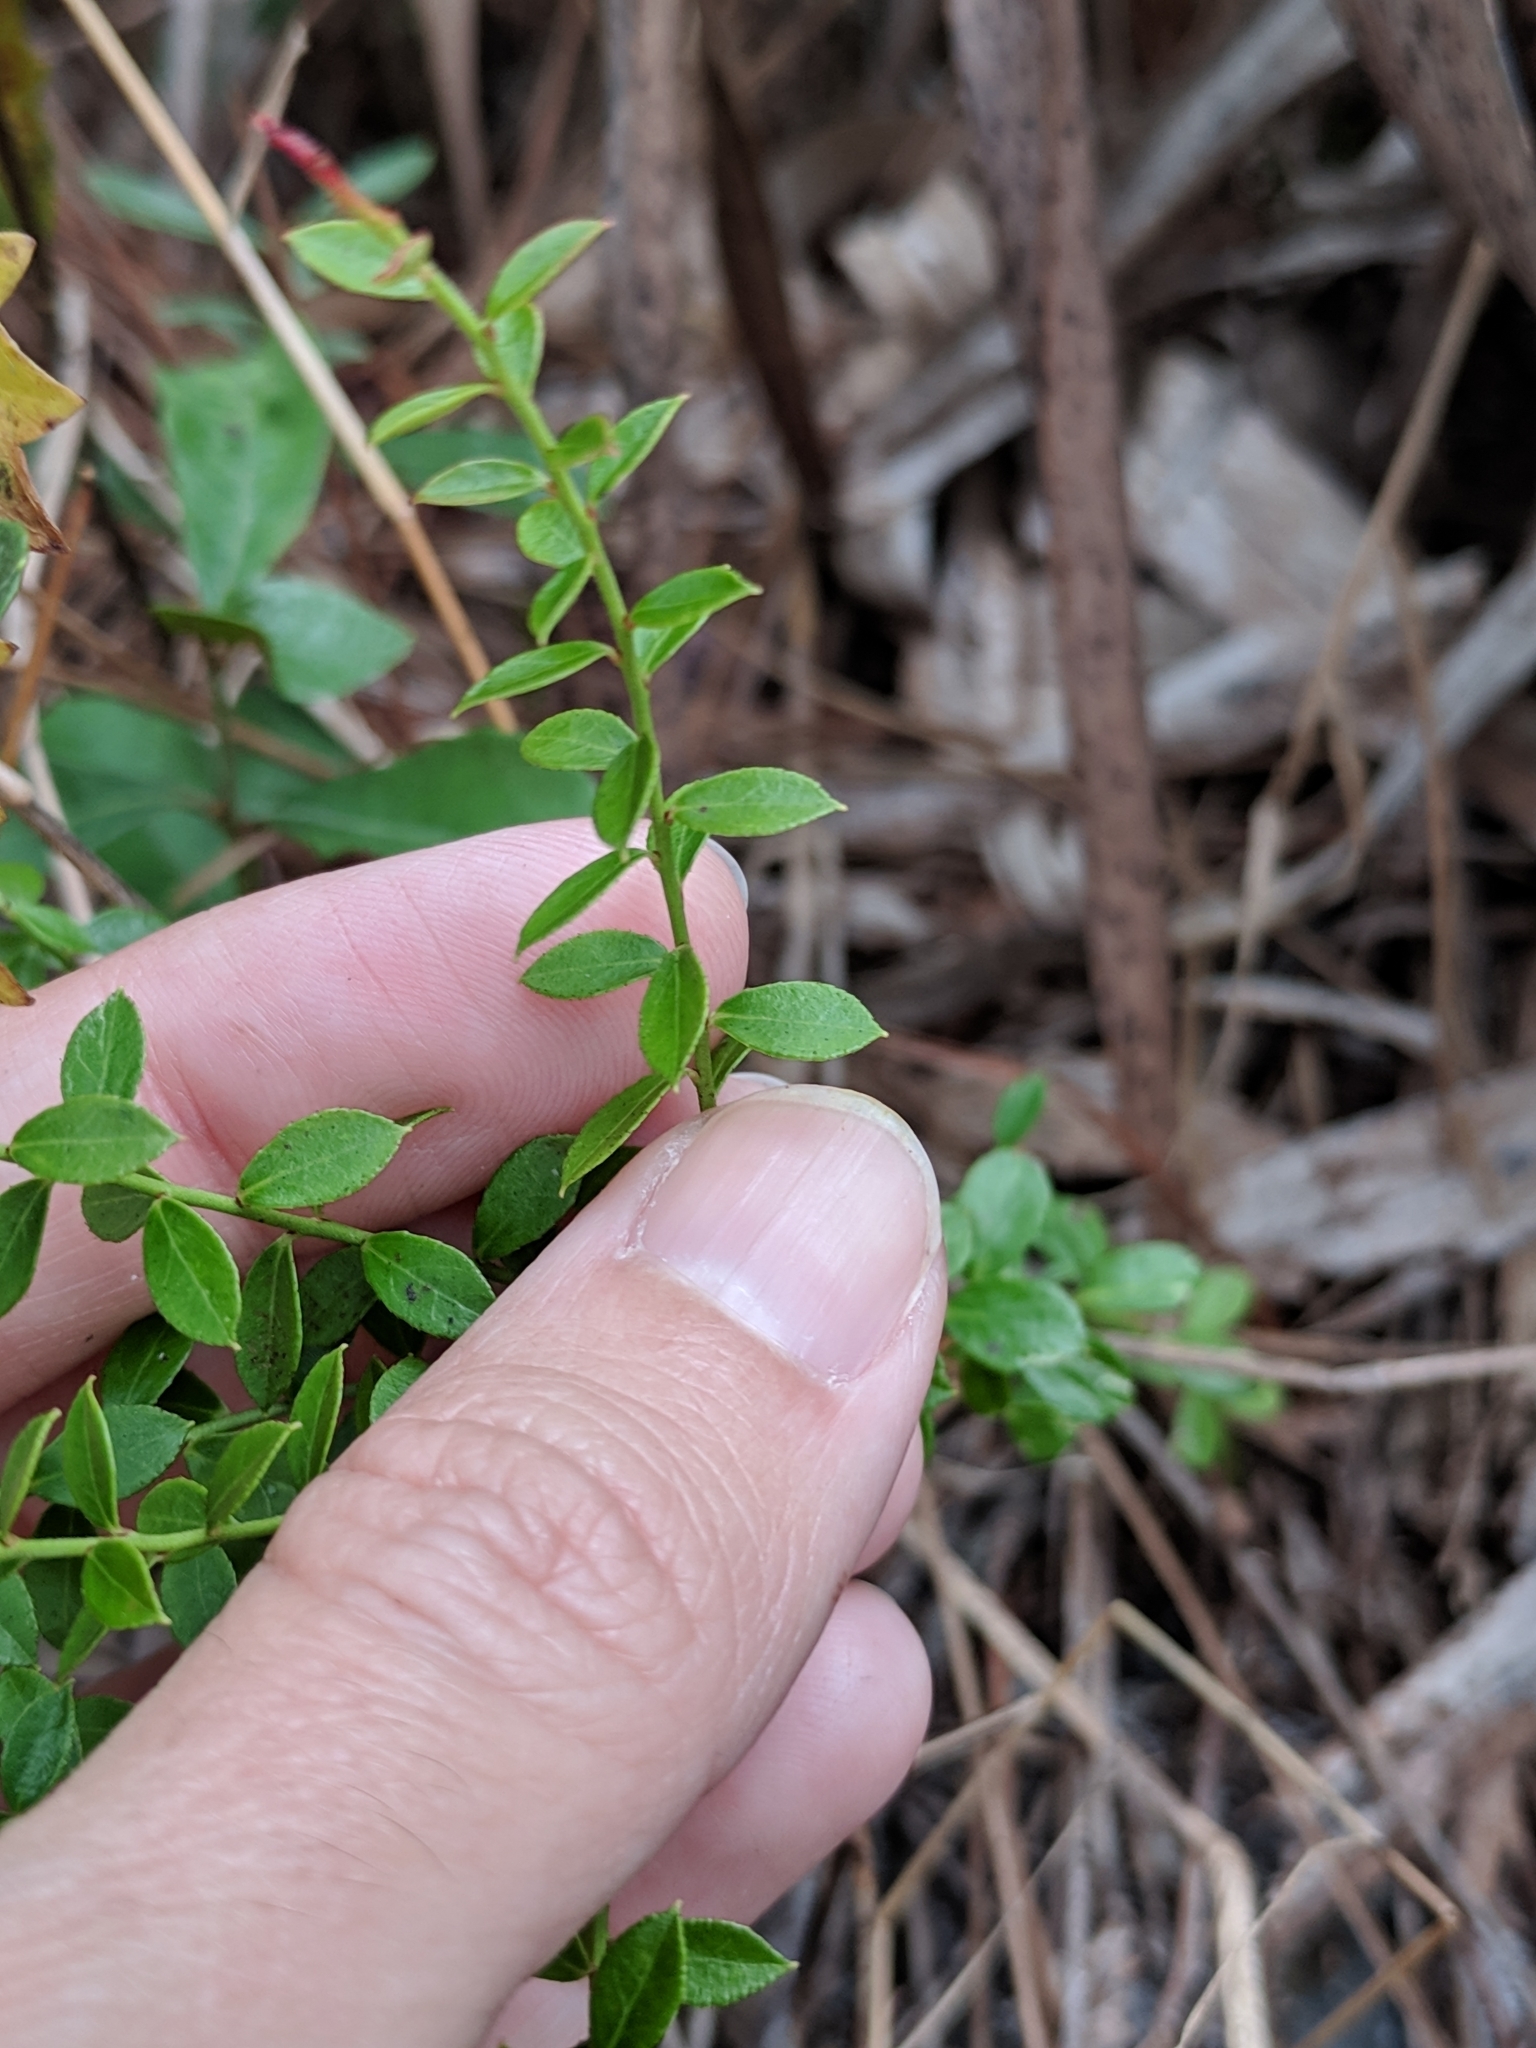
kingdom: Plantae
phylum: Tracheophyta
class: Magnoliopsida
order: Ericales
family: Ericaceae
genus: Vaccinium
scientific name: Vaccinium myrsinites
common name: Evergreen blueberry
